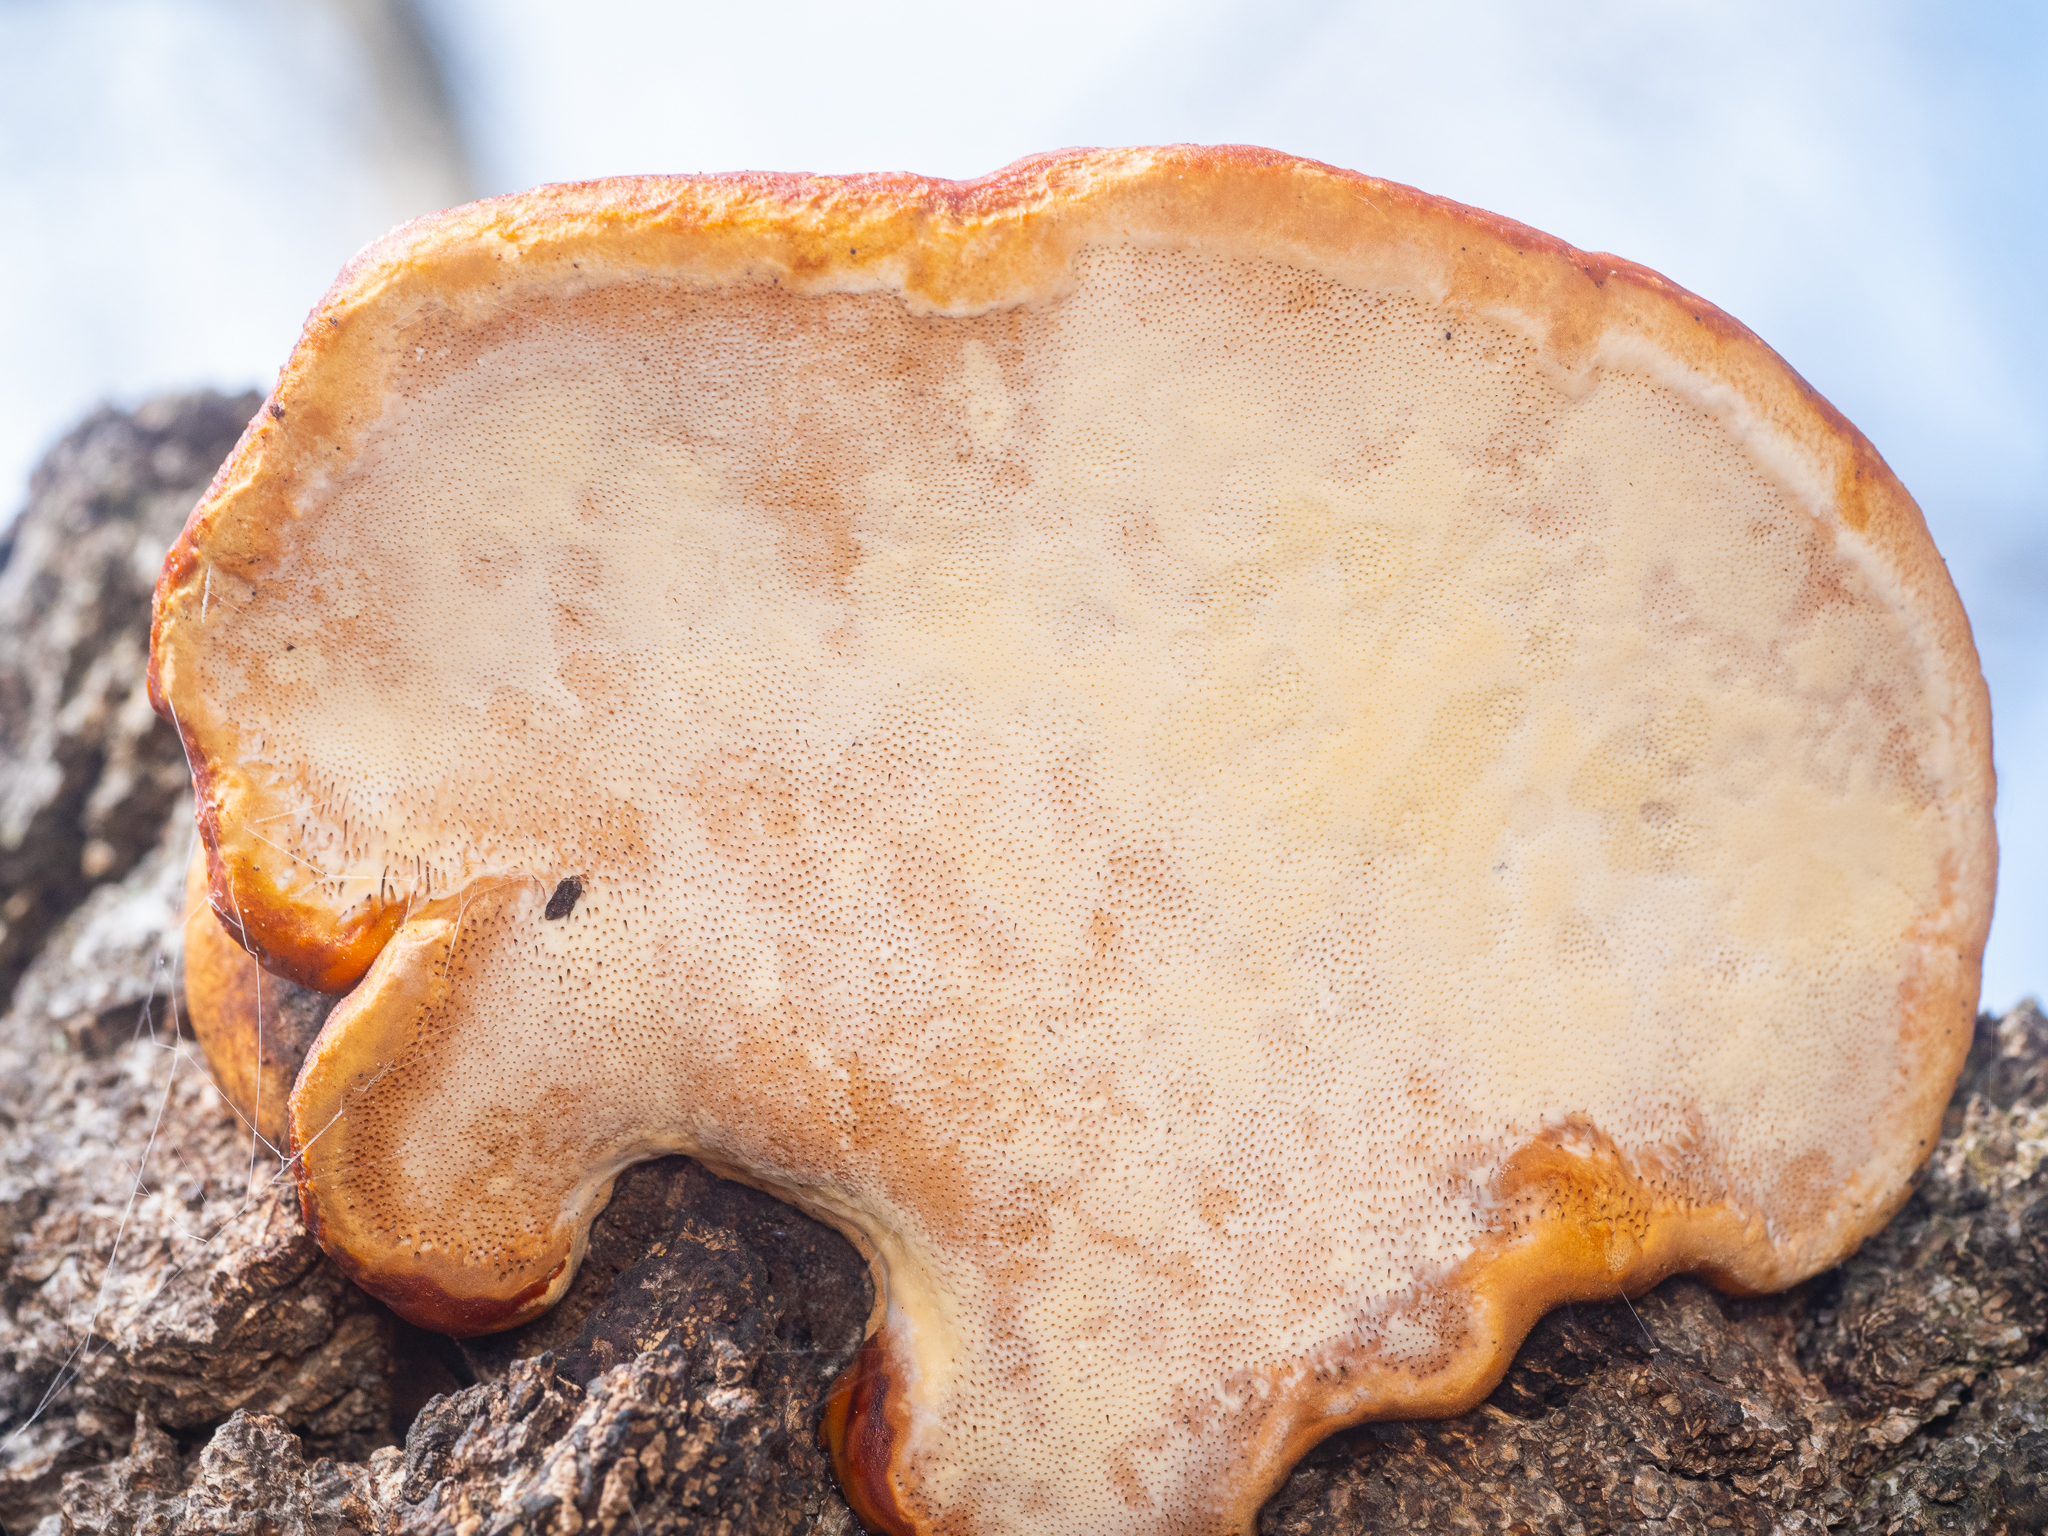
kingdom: Fungi
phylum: Basidiomycota
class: Agaricomycetes
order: Polyporales
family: Fomitopsidaceae
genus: Fomitopsis
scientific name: Fomitopsis pinicola
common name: Red-belted bracket
